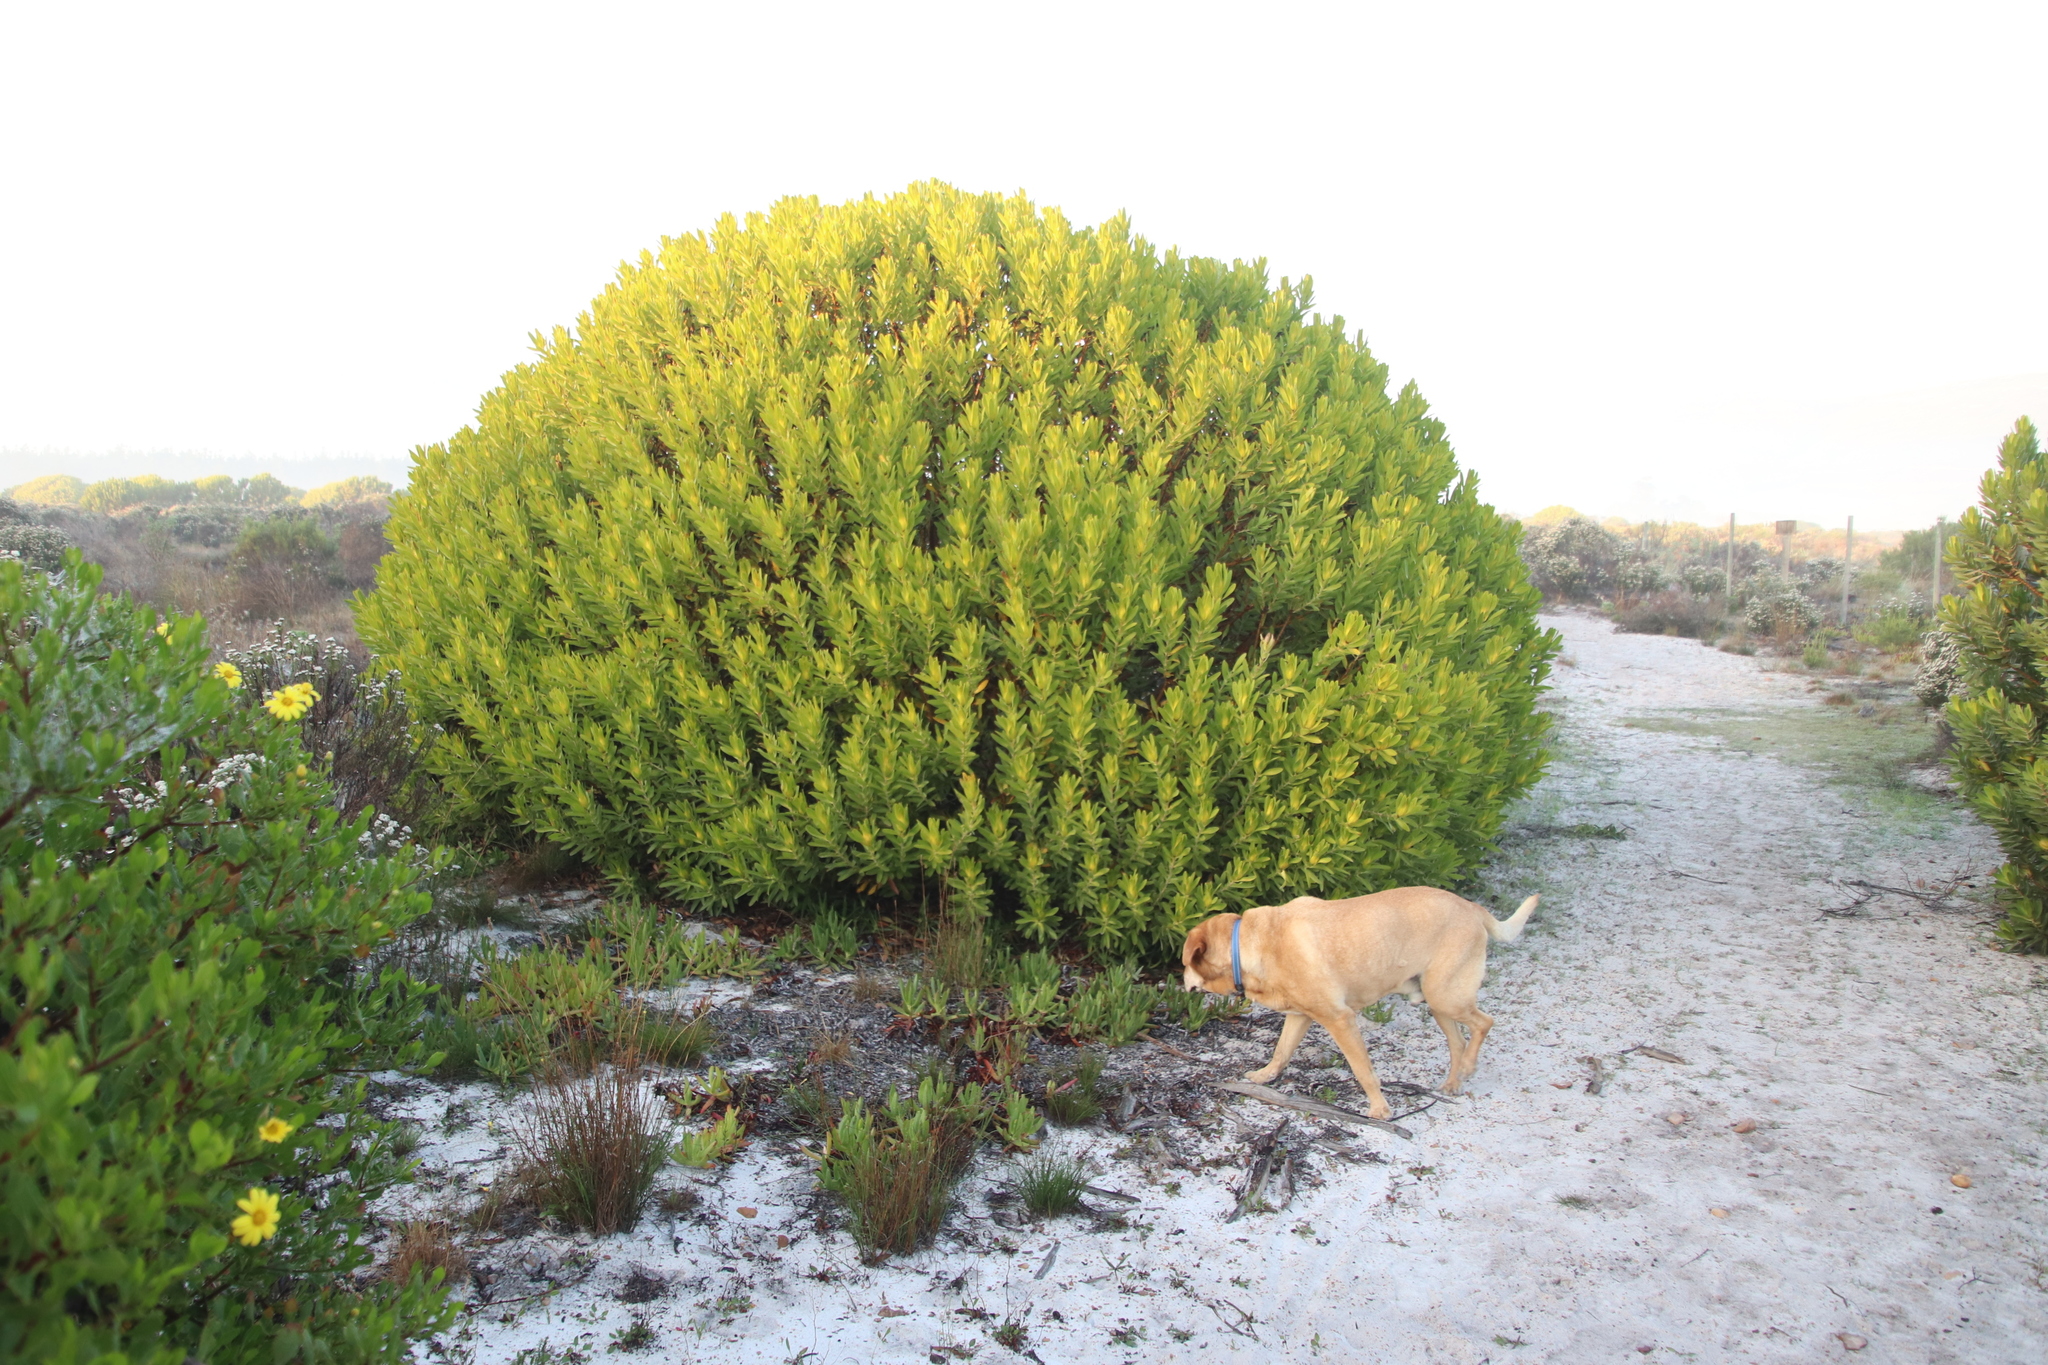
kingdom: Plantae
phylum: Tracheophyta
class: Magnoliopsida
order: Proteales
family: Proteaceae
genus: Leucadendron
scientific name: Leucadendron laureolum
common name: Golden sunshinebush
